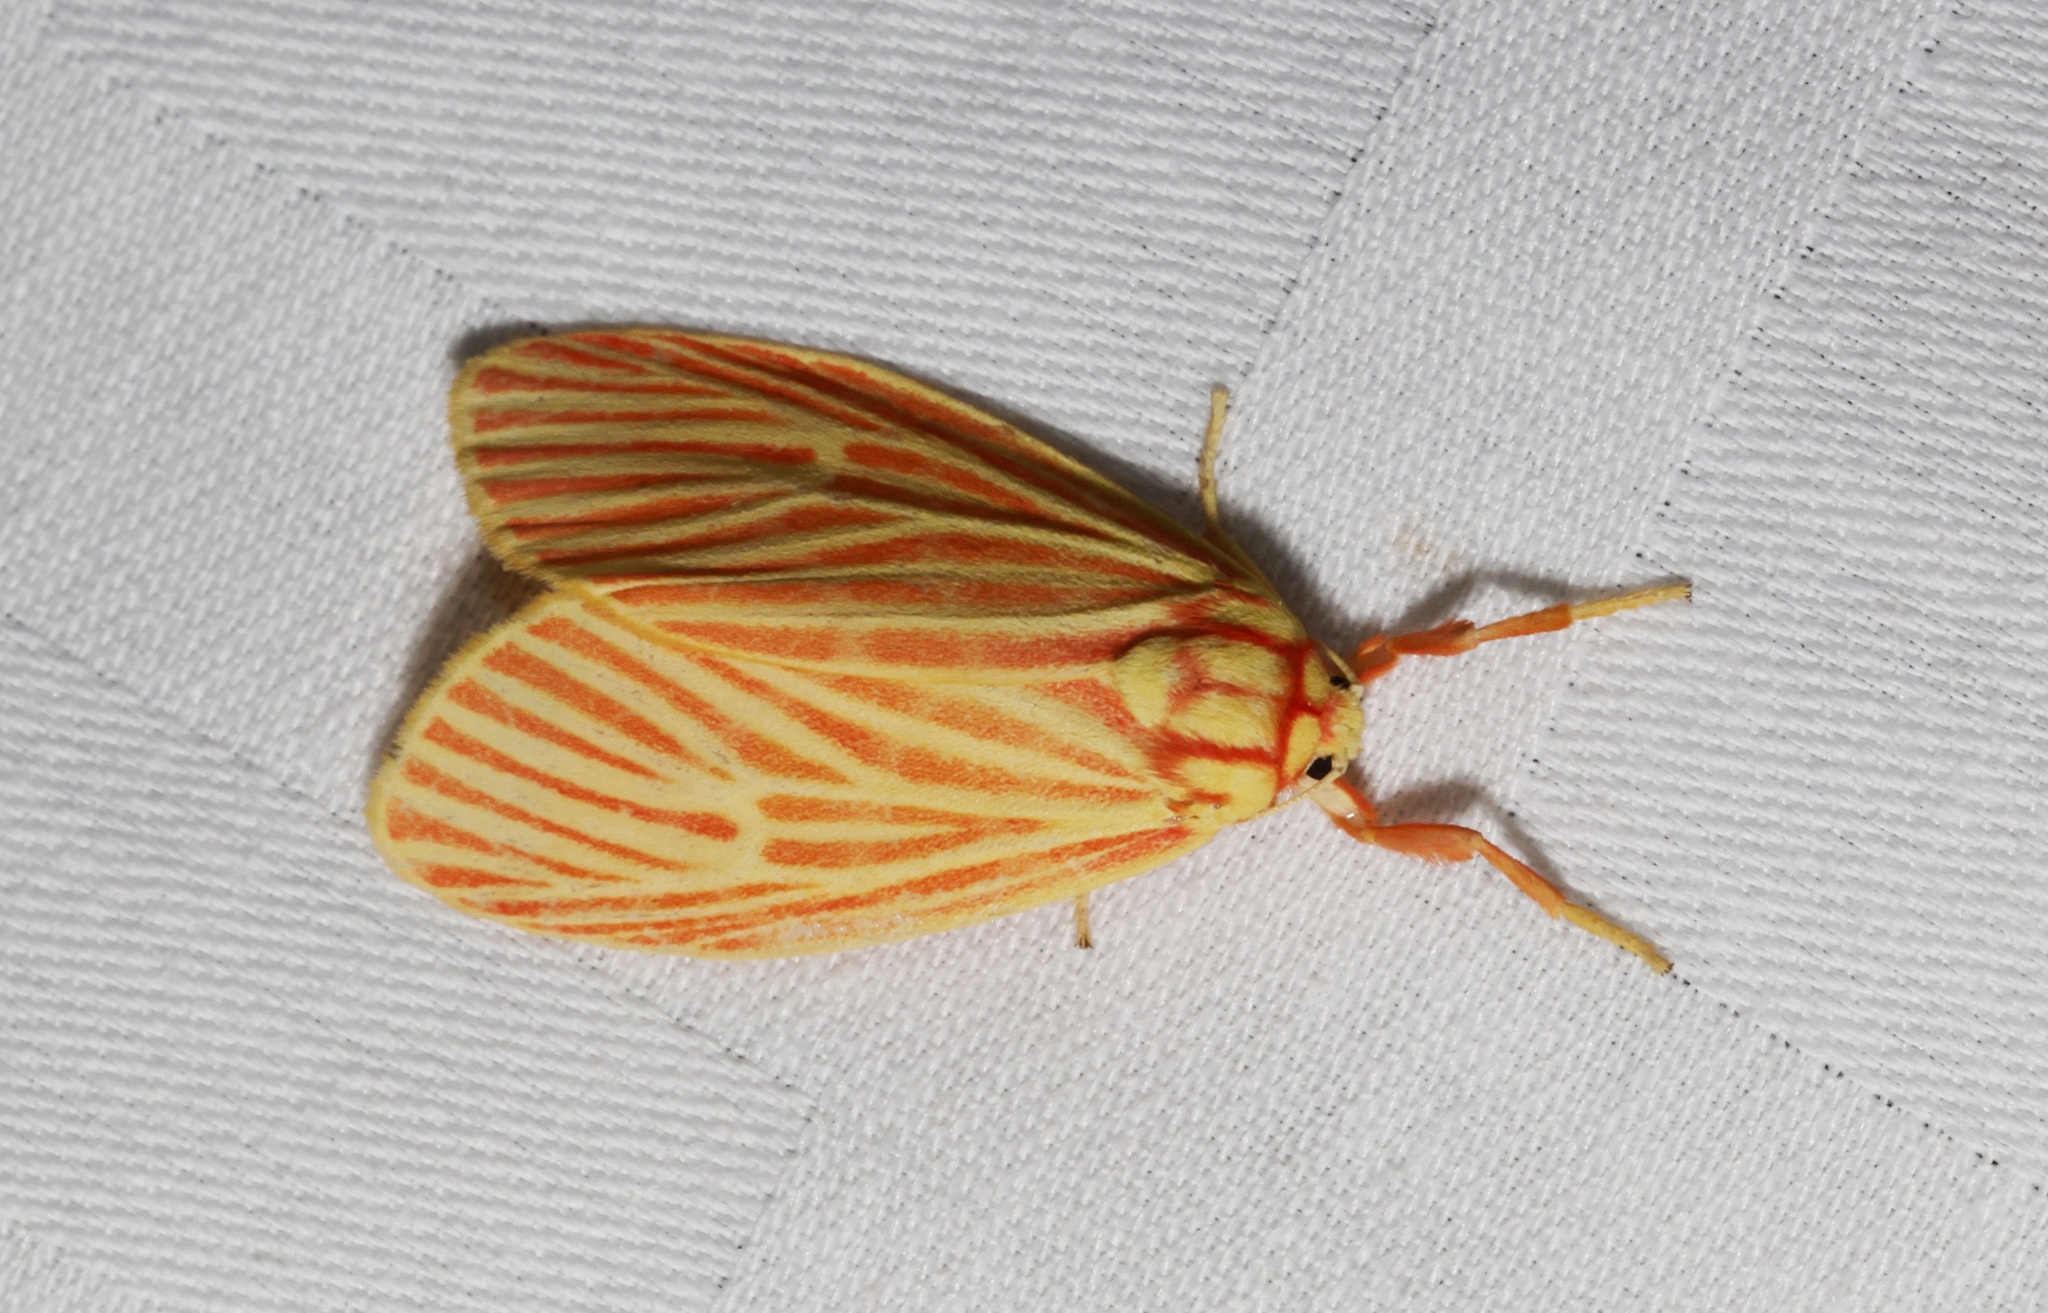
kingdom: Animalia
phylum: Arthropoda
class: Insecta
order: Lepidoptera
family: Erebidae
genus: Barsine
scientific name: Barsine striata
